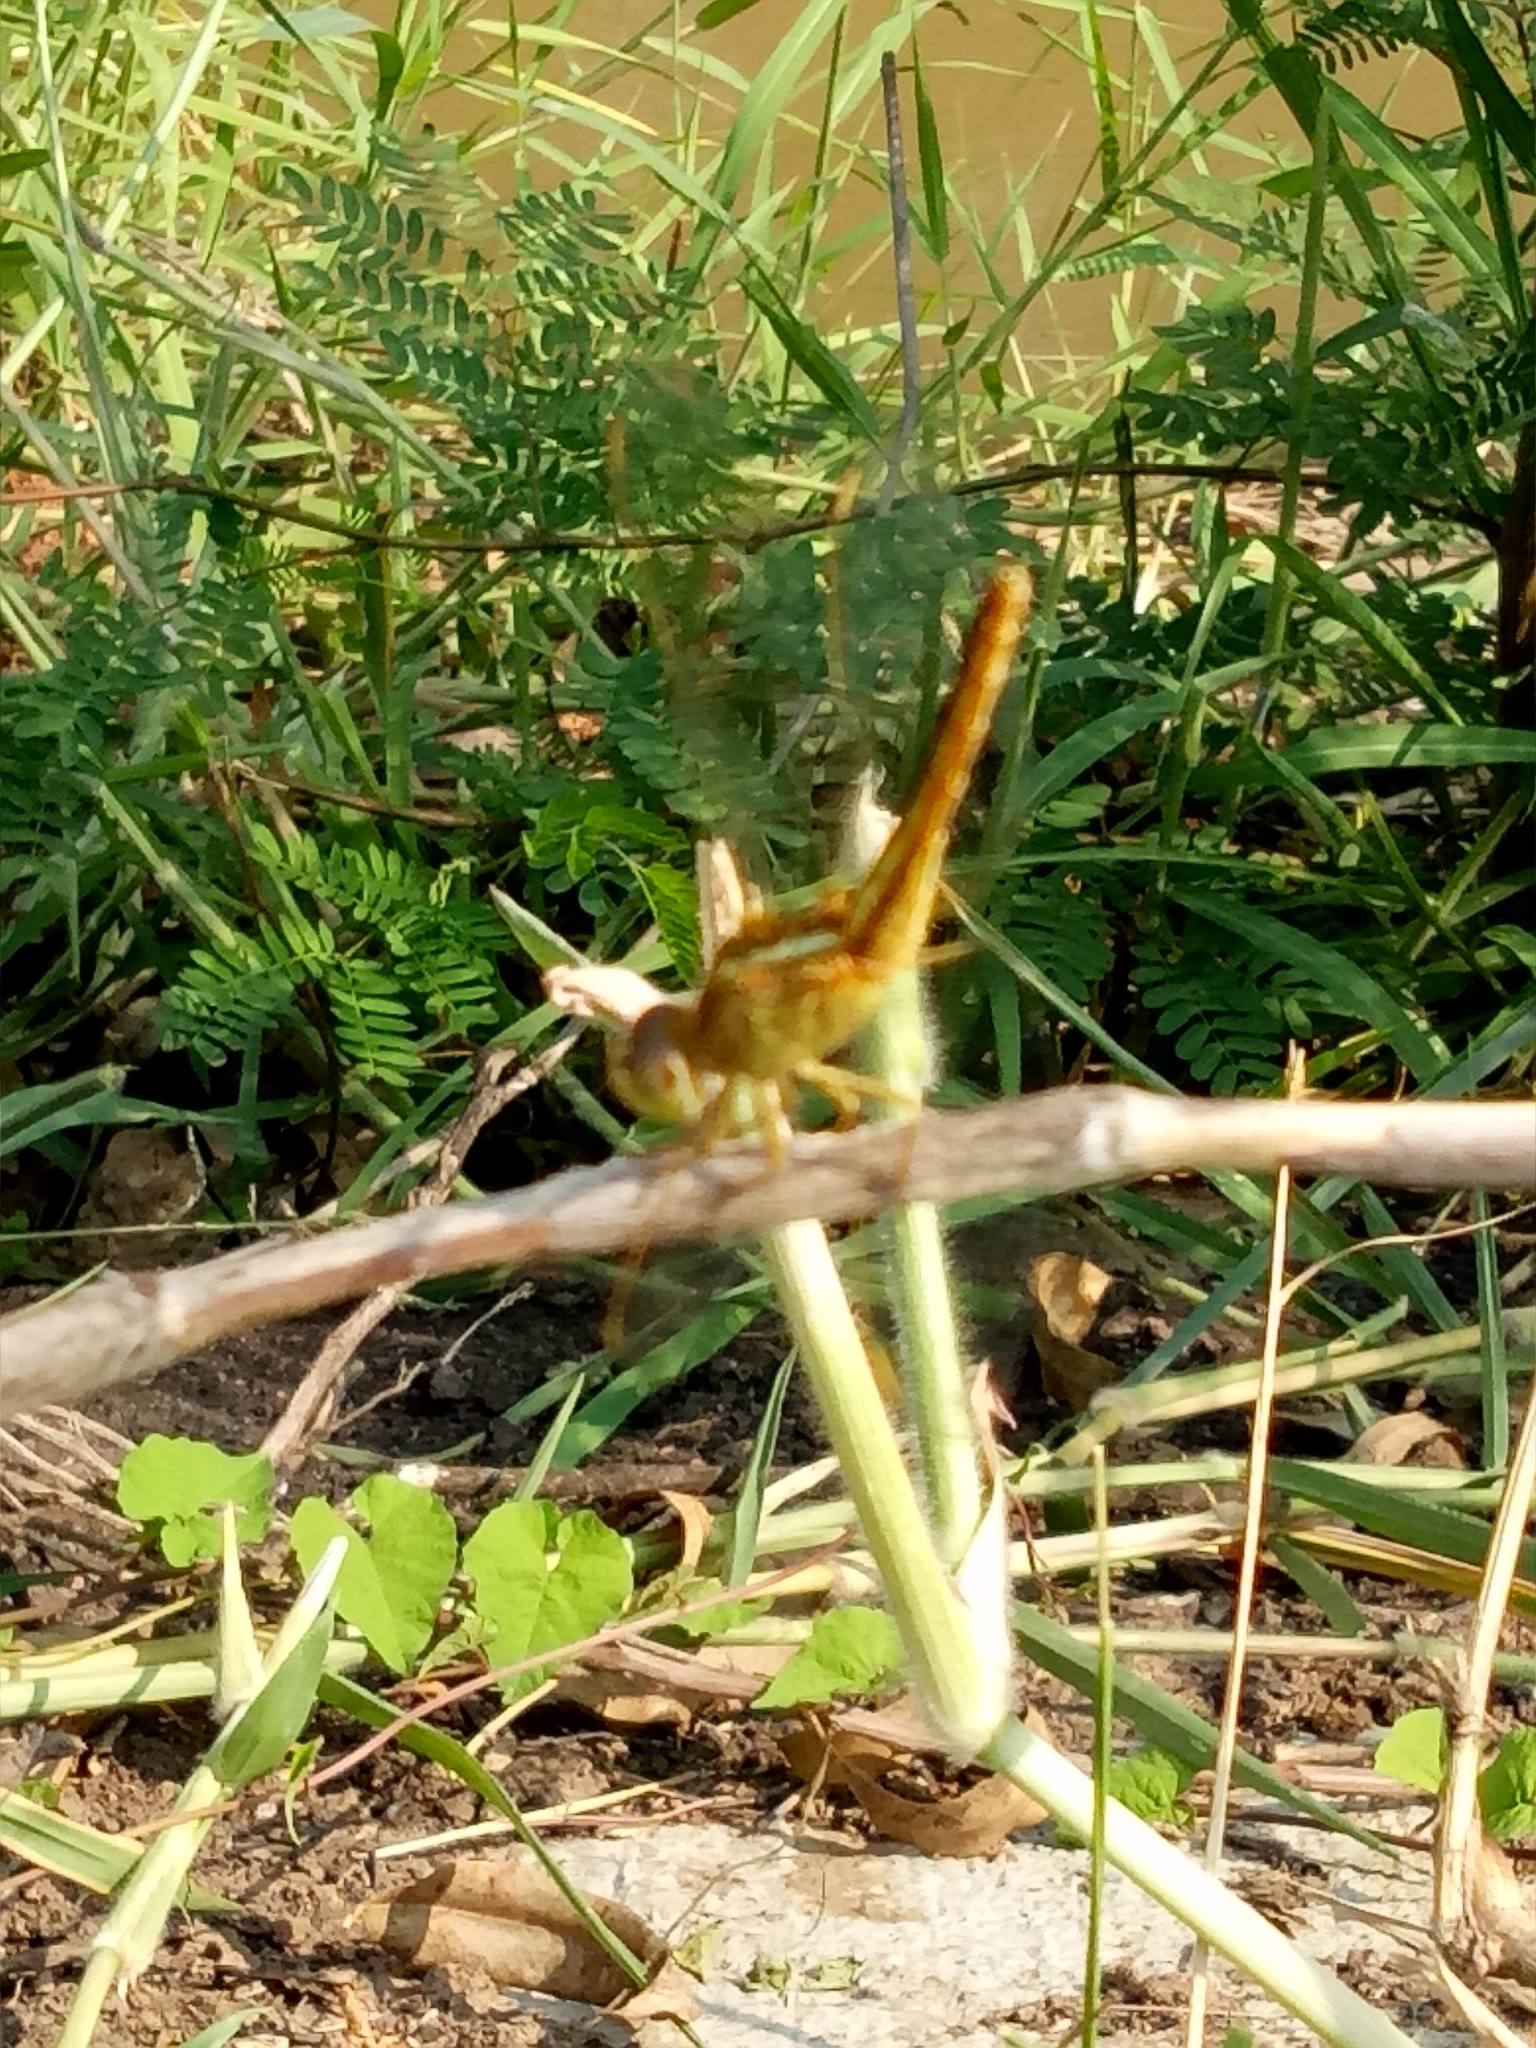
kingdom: Animalia
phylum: Arthropoda
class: Insecta
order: Odonata
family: Libellulidae
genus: Crocothemis
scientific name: Crocothemis servilia
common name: Scarlet skimmer
